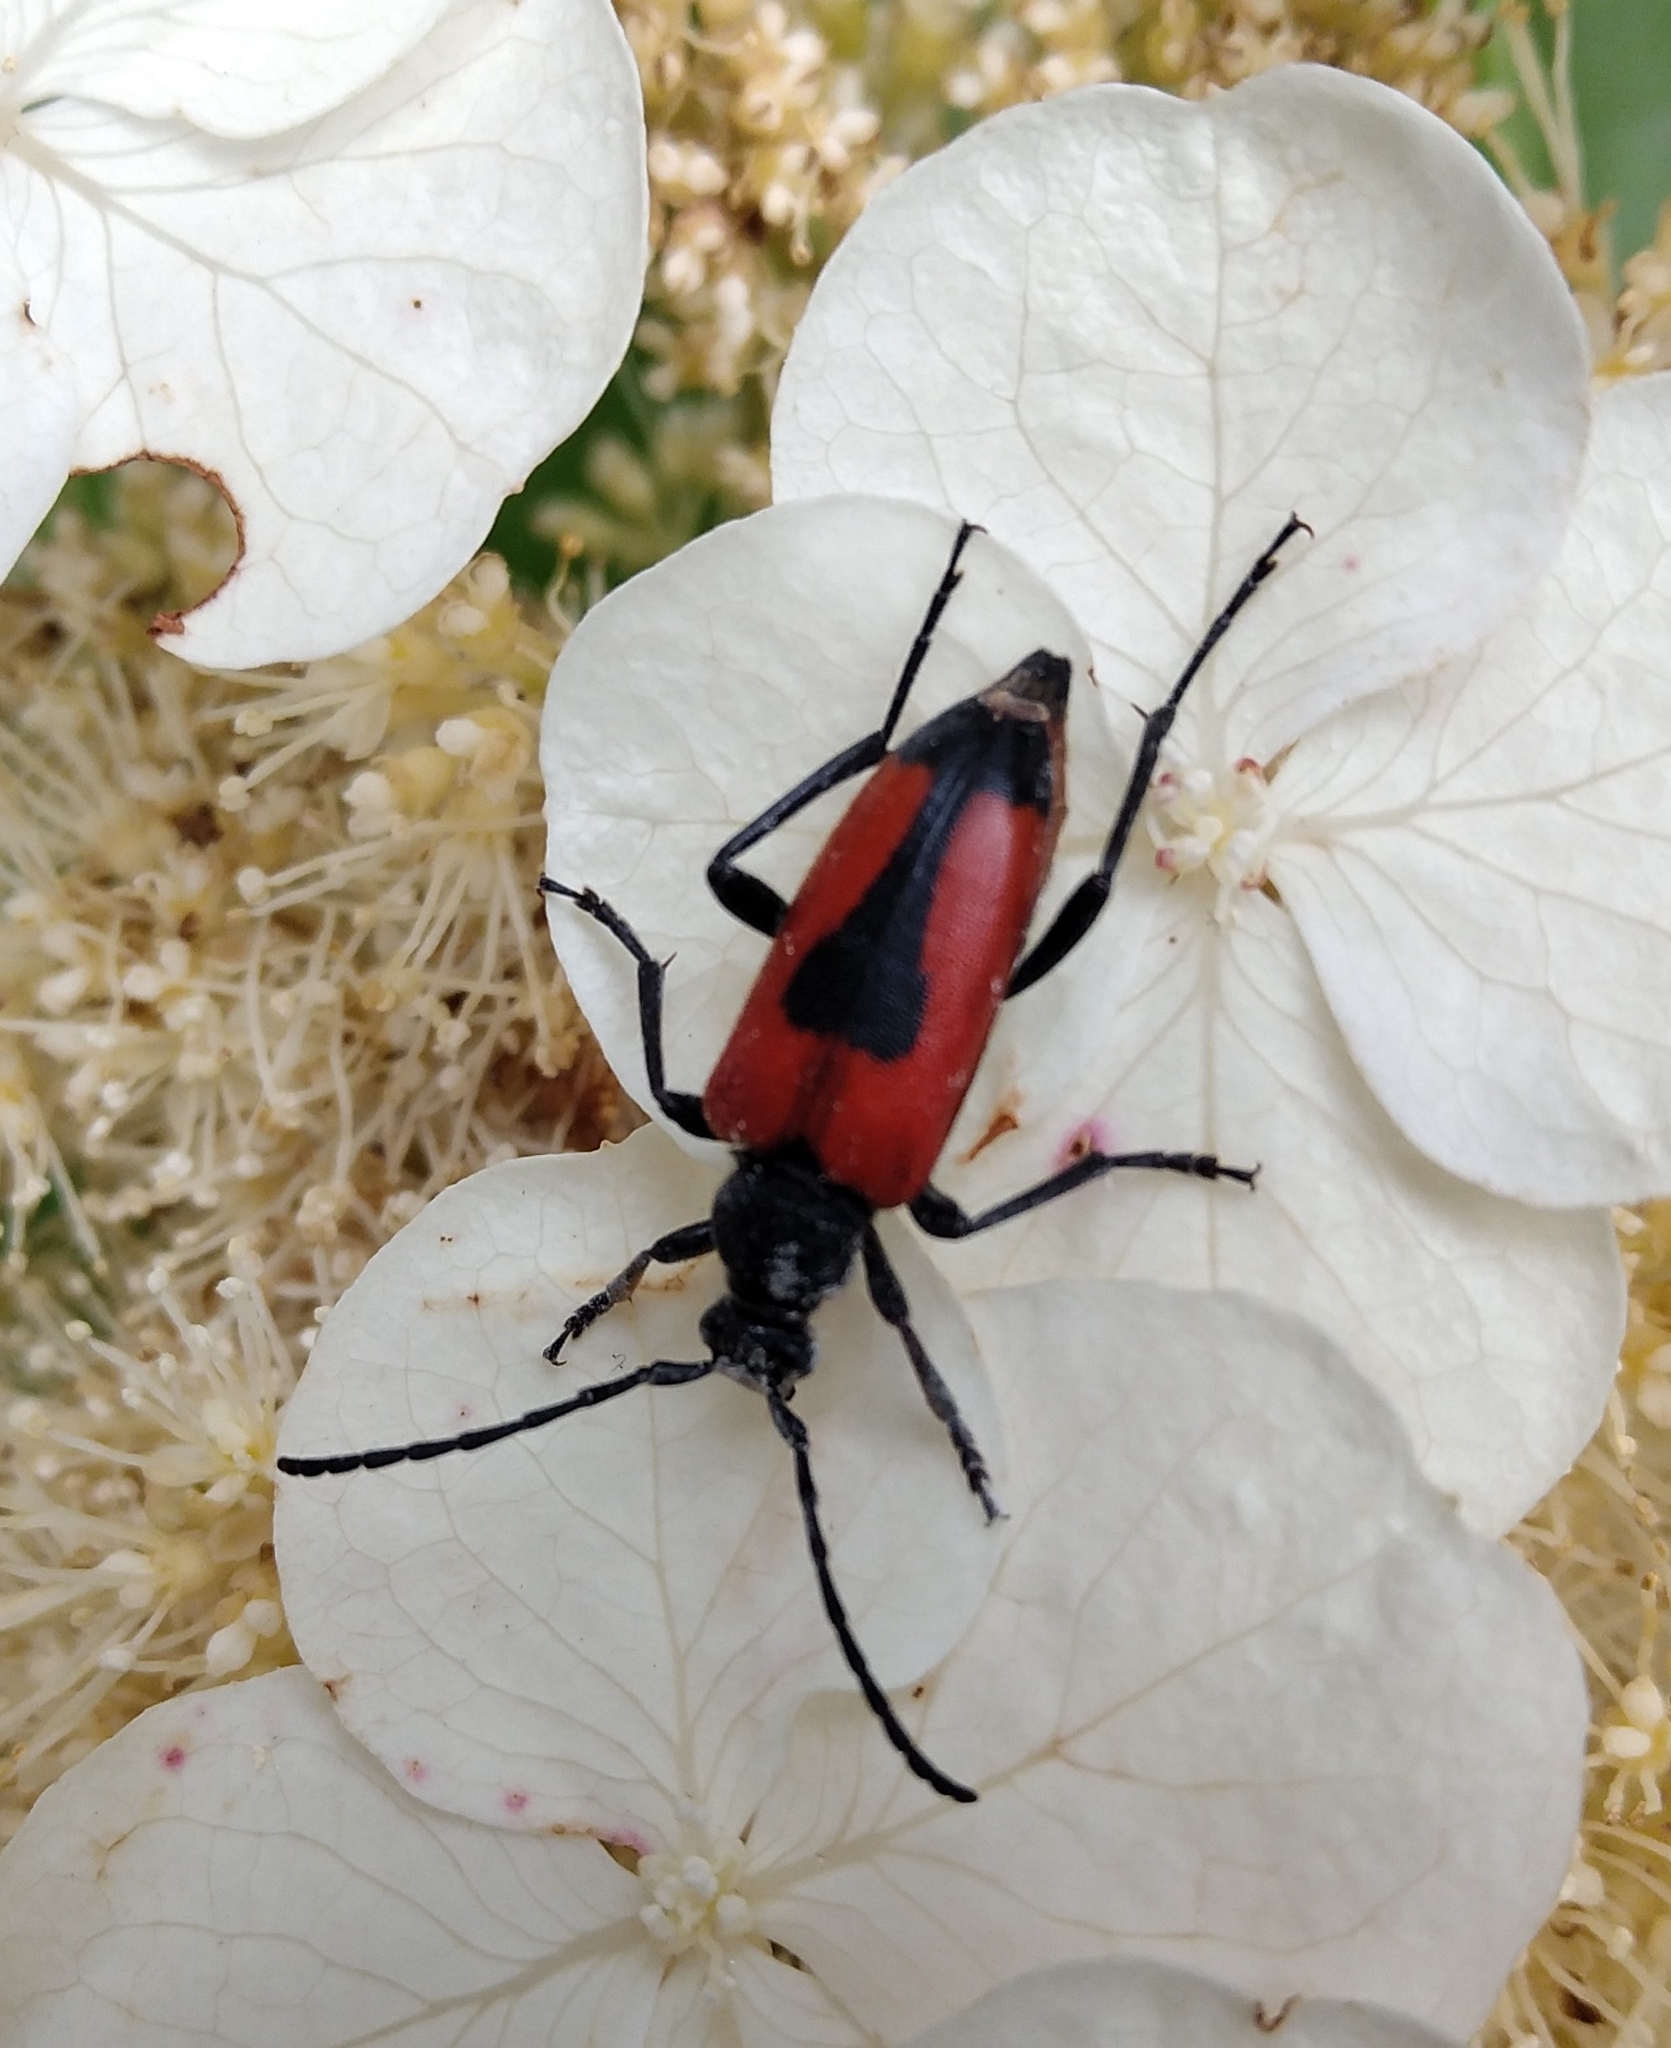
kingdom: Animalia
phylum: Arthropoda
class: Insecta
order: Coleoptera
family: Cerambycidae
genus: Stictoleptura
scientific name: Stictoleptura cordigera
